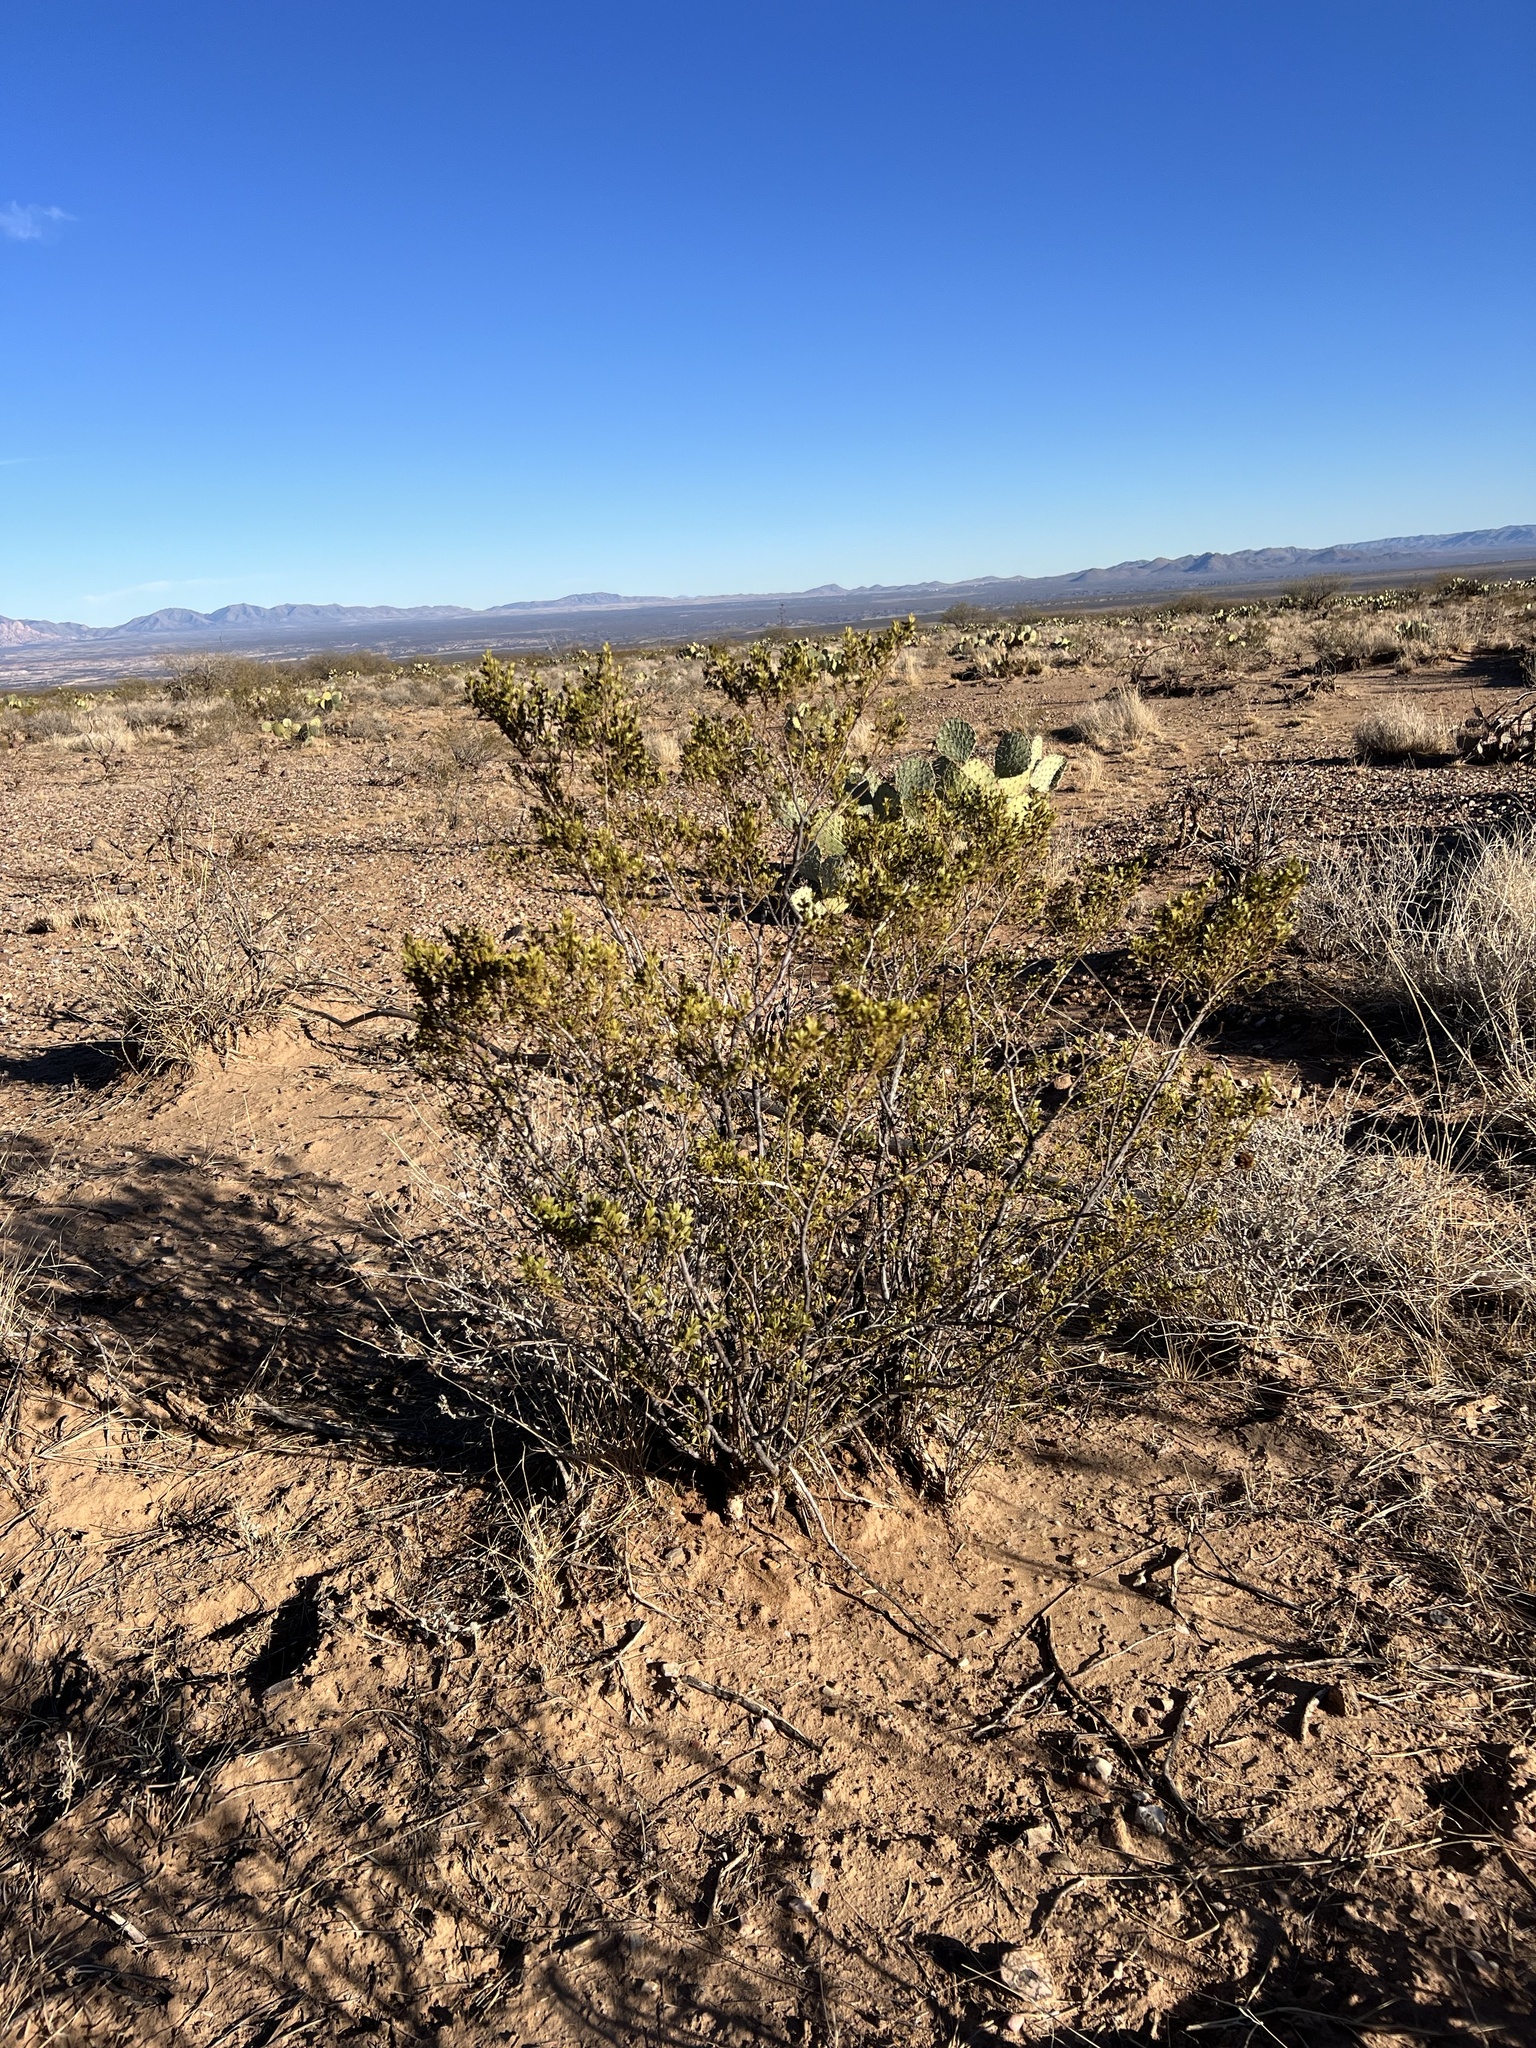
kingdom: Plantae
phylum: Tracheophyta
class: Magnoliopsida
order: Zygophyllales
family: Zygophyllaceae
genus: Larrea
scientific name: Larrea tridentata
